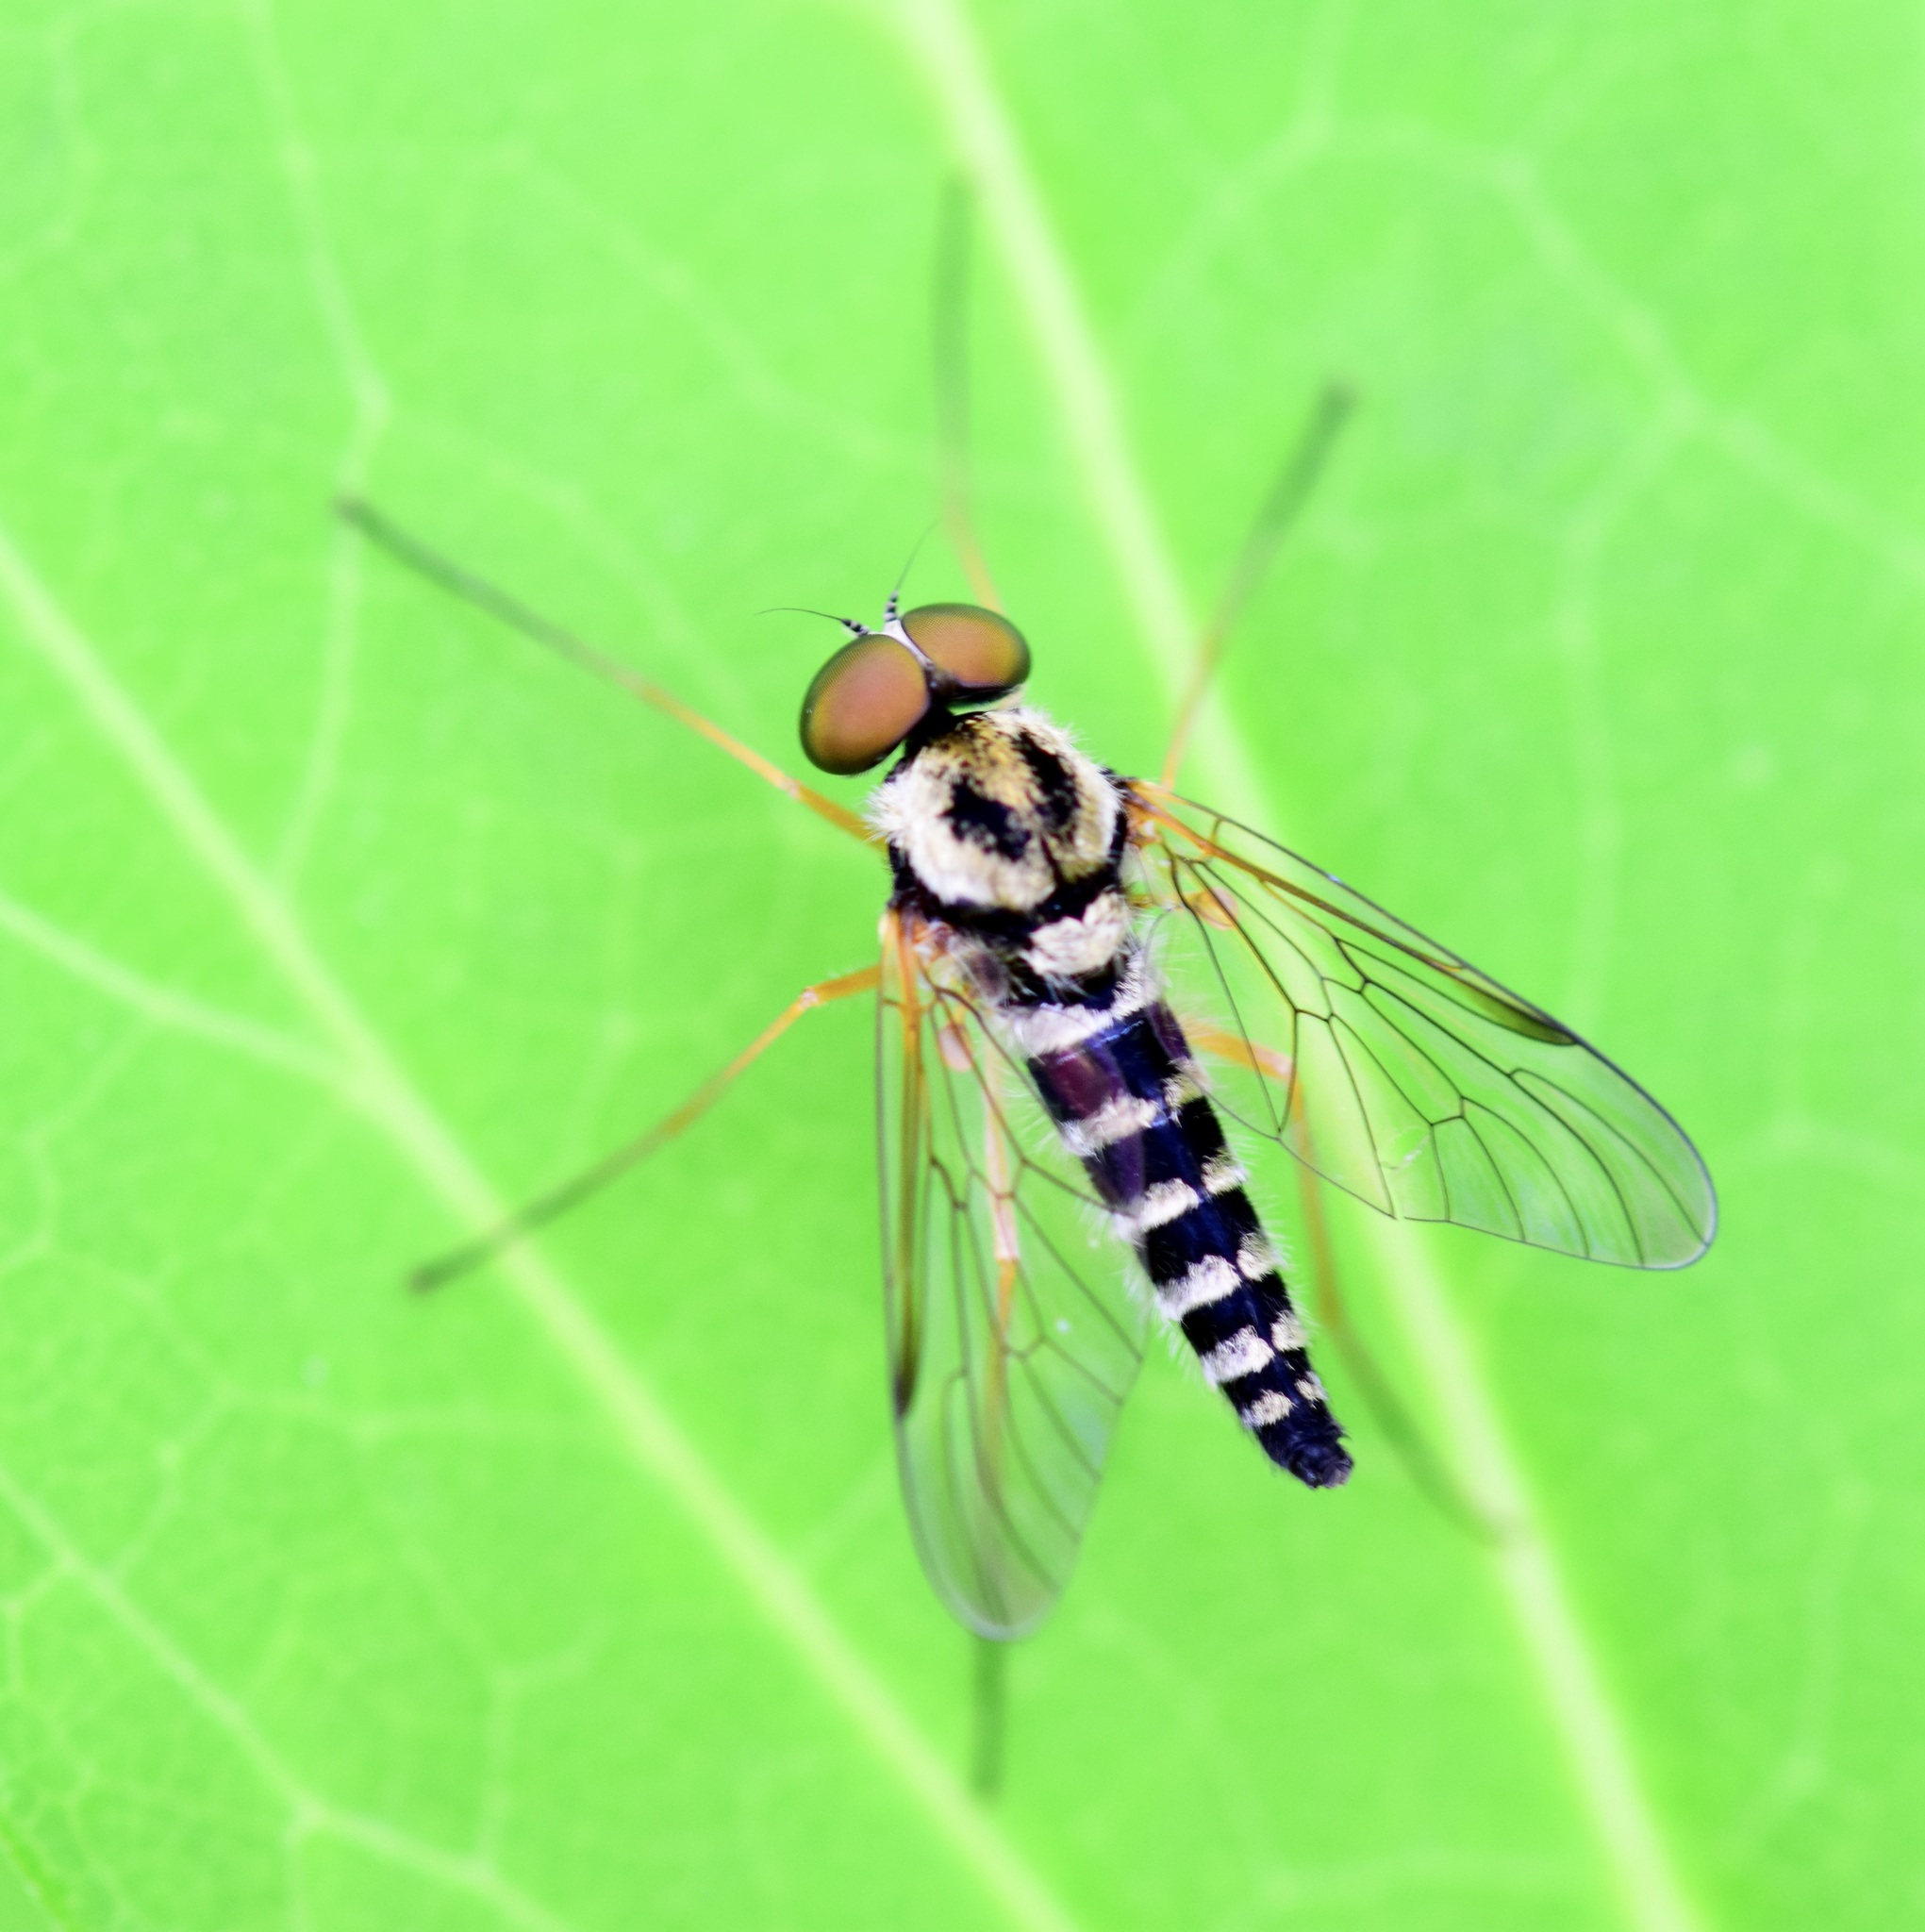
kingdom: Animalia
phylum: Arthropoda
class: Insecta
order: Diptera
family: Rhagionidae
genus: Chrysopilus
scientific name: Chrysopilus ornatus
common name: Ornate snipe fly
